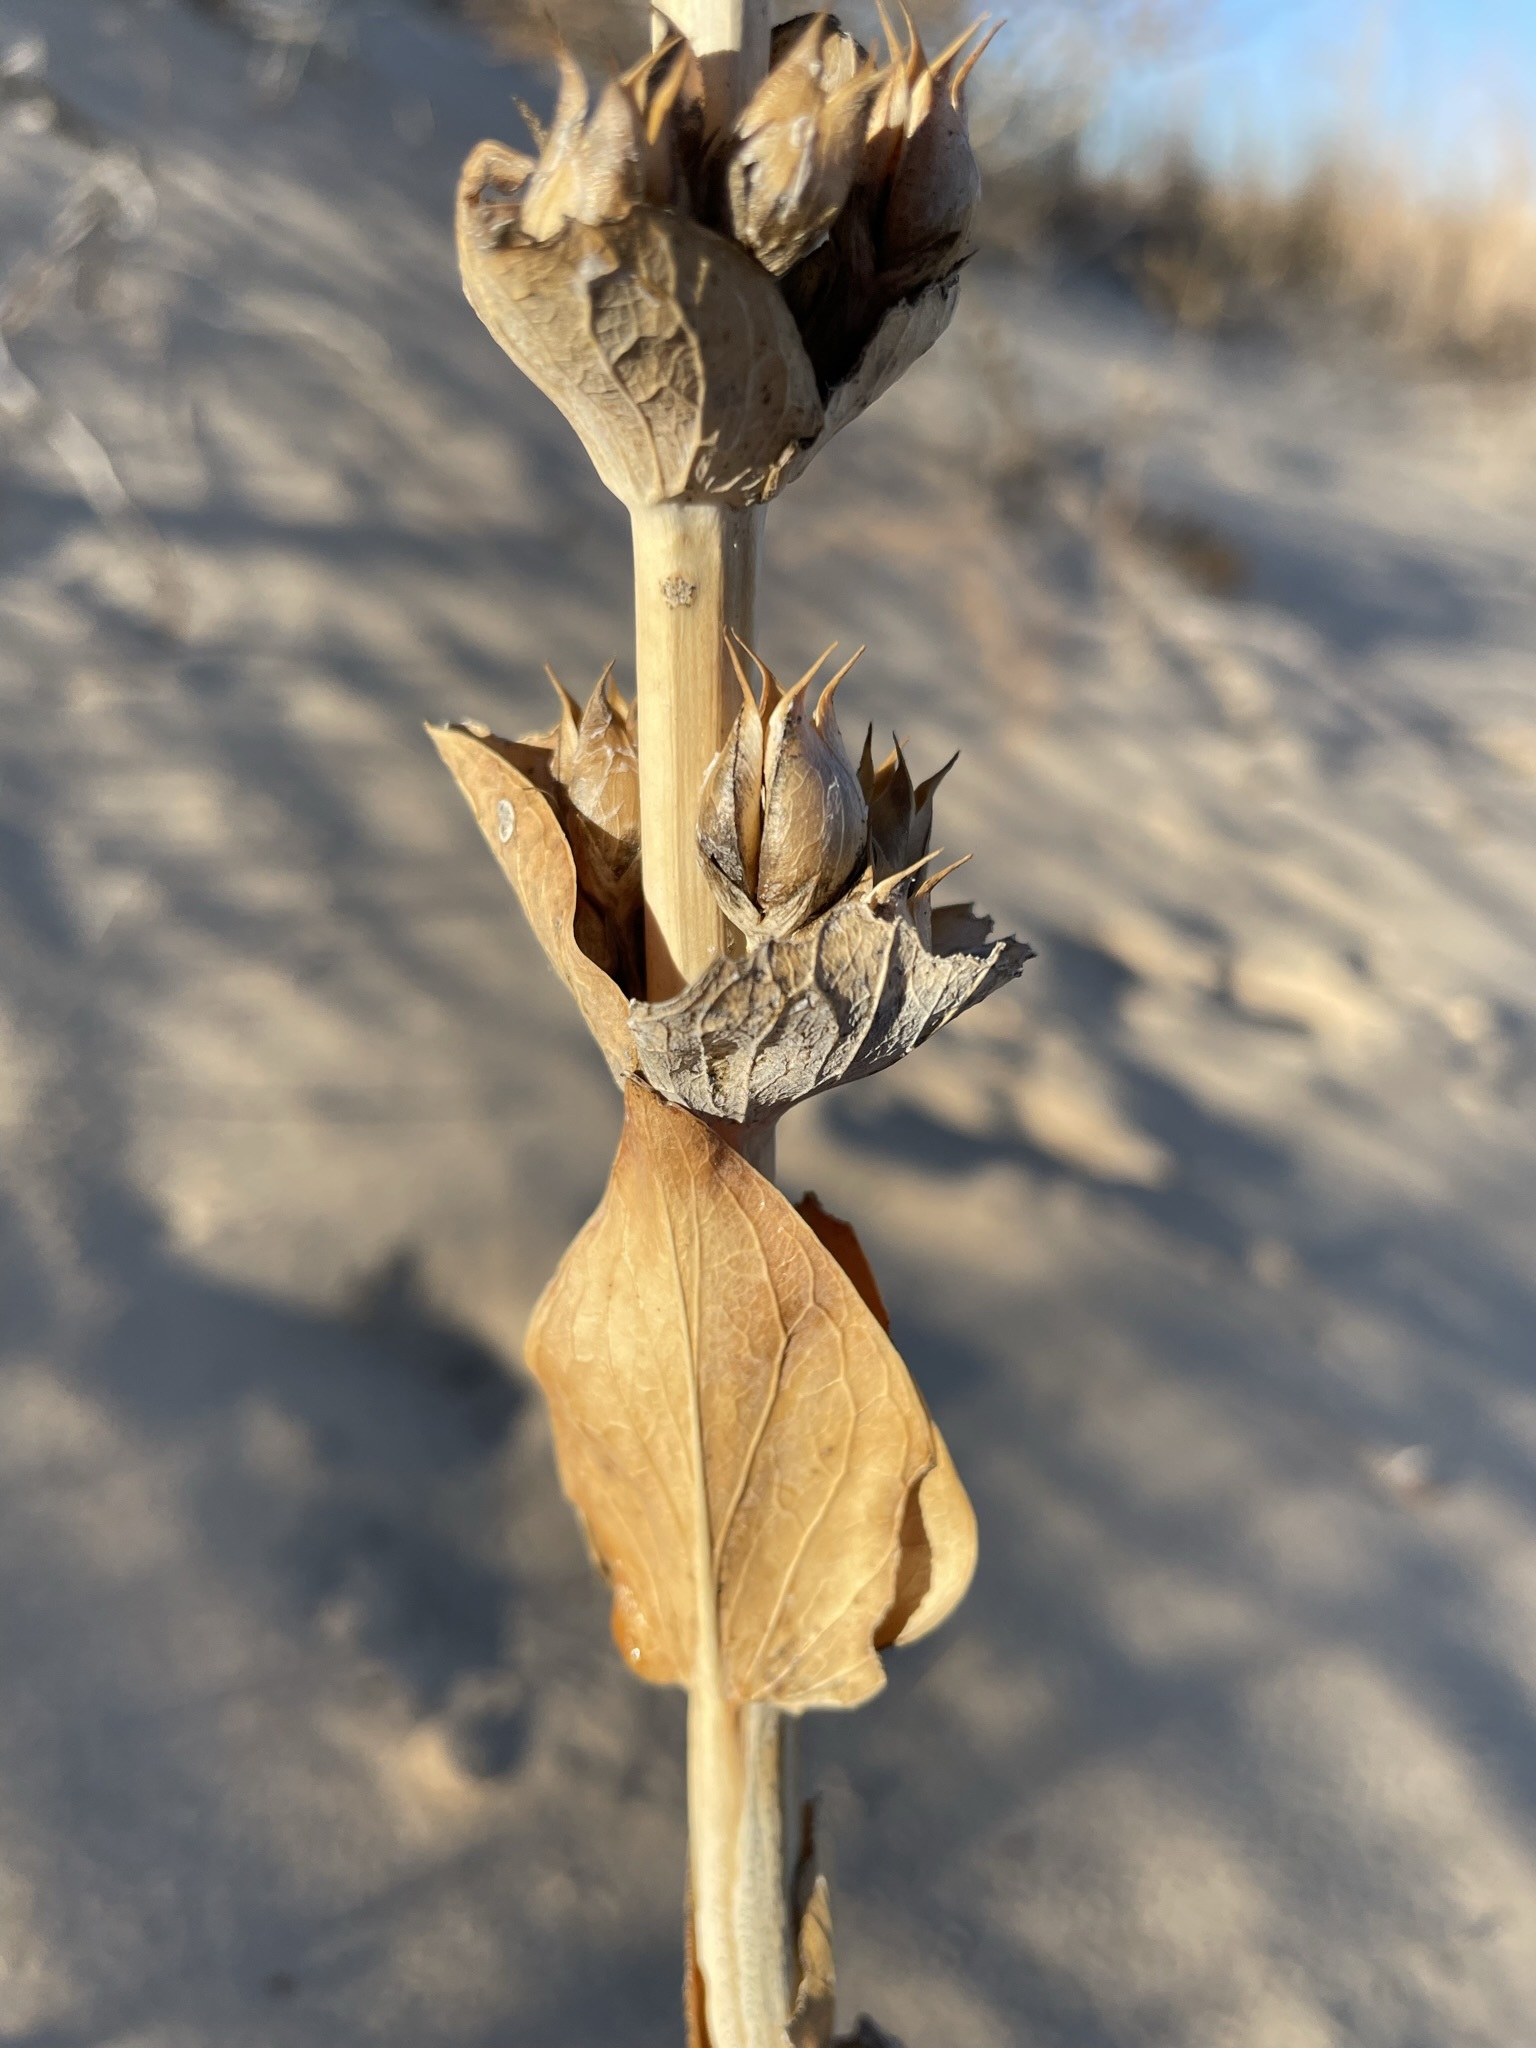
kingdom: Plantae
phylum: Tracheophyta
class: Magnoliopsida
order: Lamiales
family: Plantaginaceae
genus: Penstemon
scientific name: Penstemon buckleyi
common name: Buckley's penstemon
